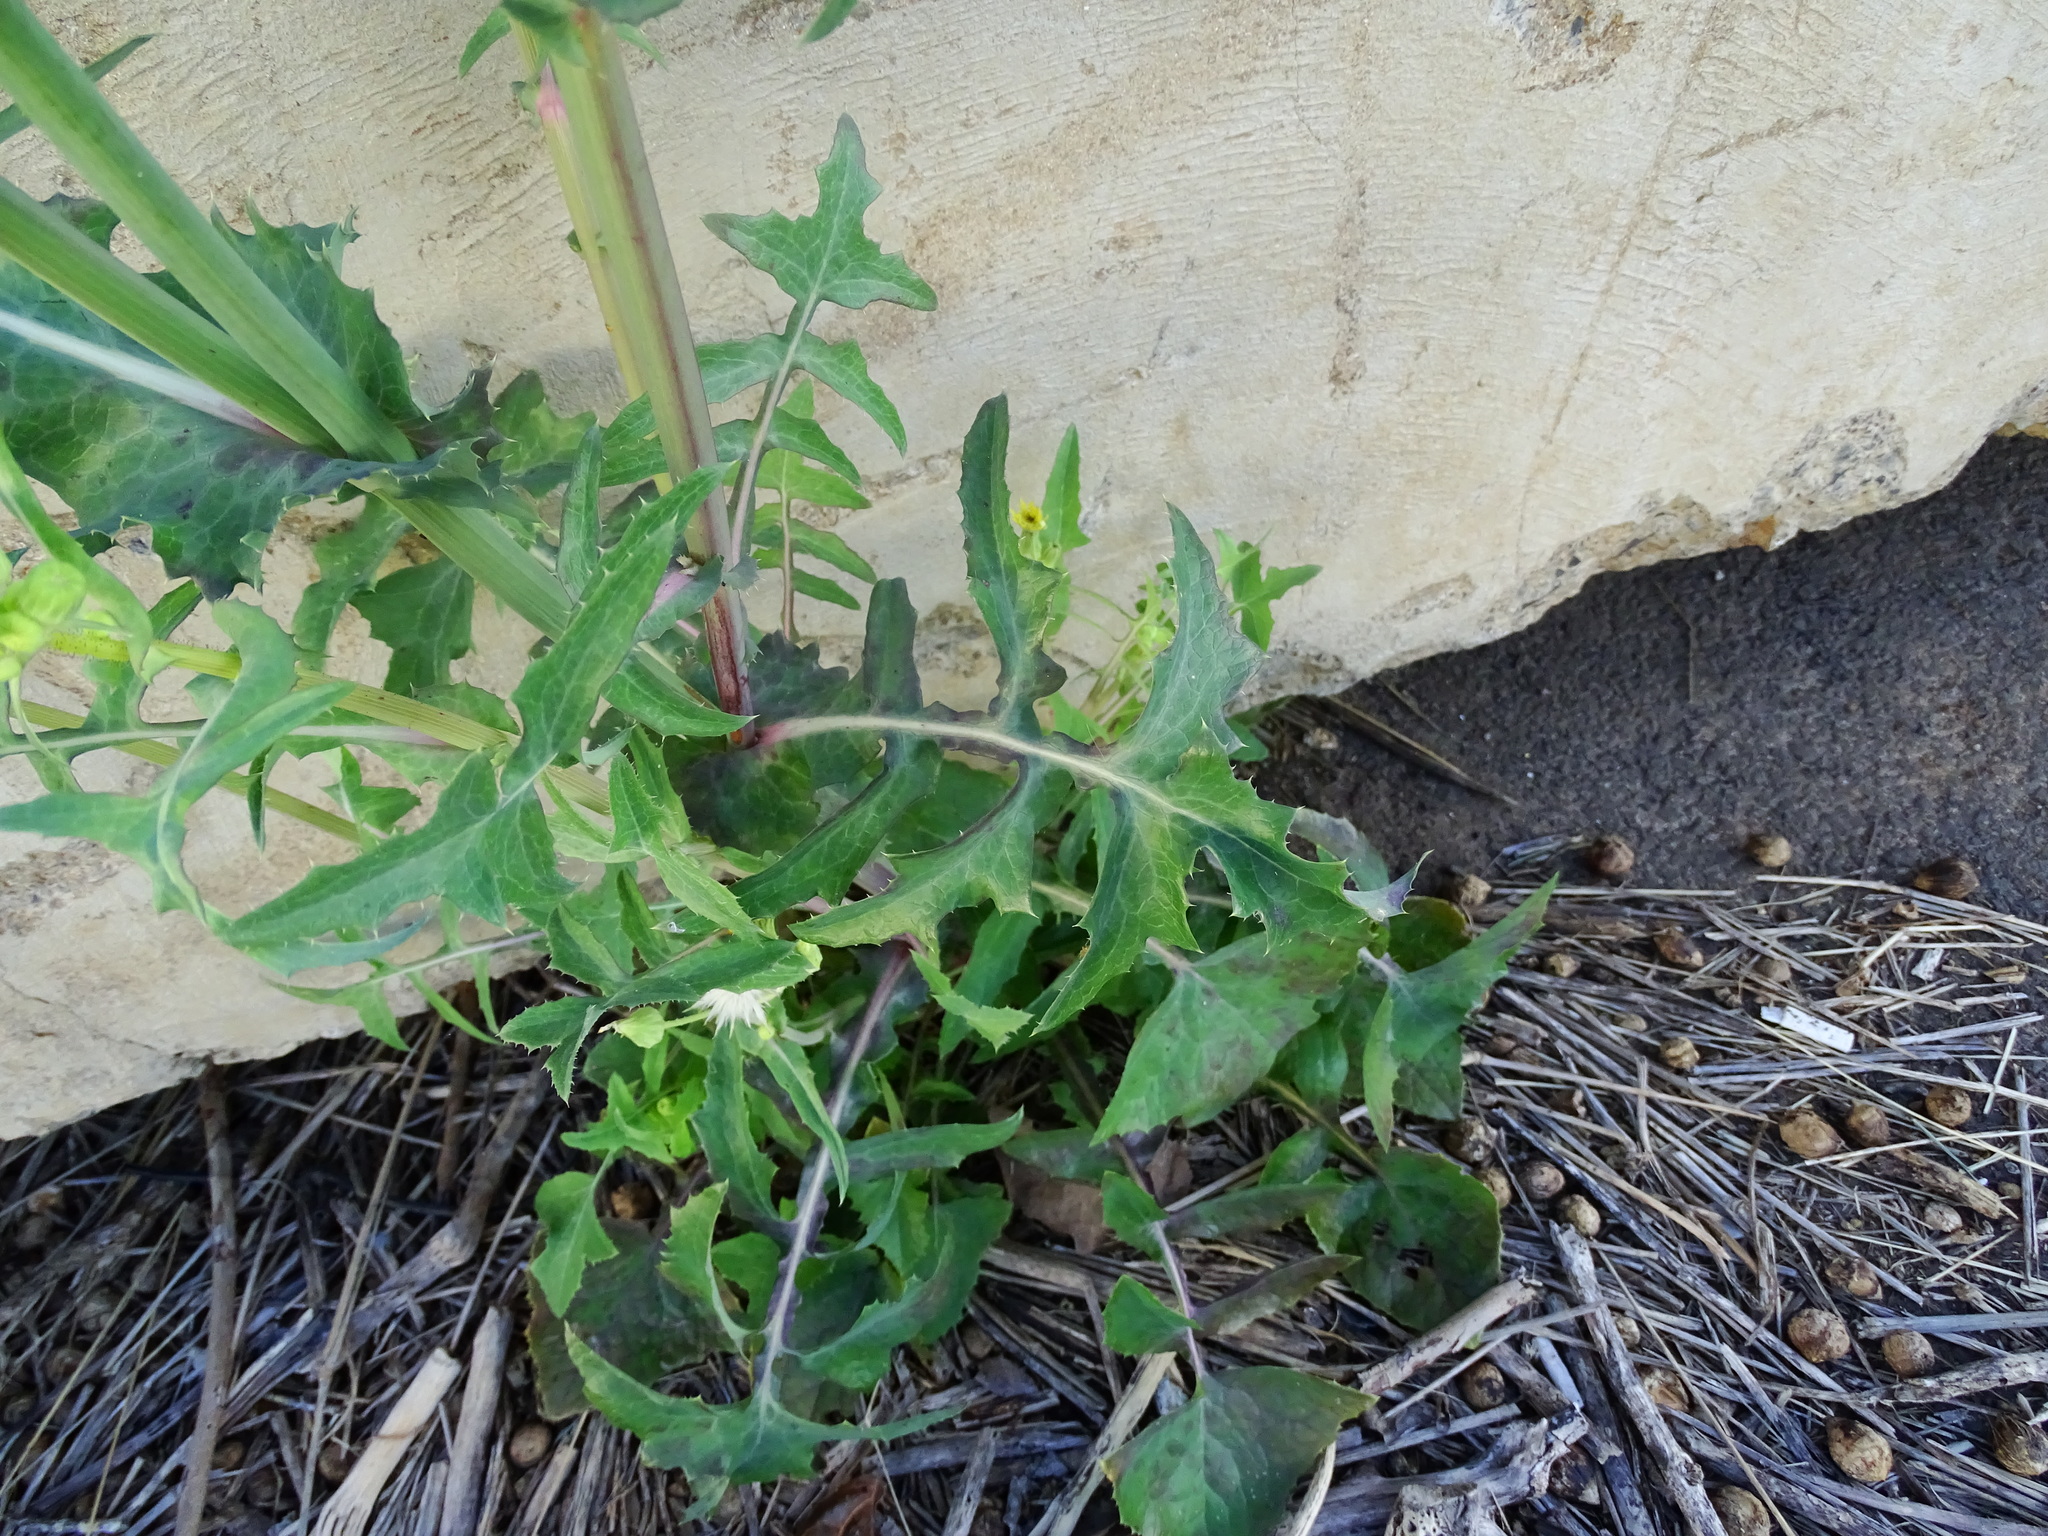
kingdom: Plantae
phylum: Tracheophyta
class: Magnoliopsida
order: Asterales
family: Asteraceae
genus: Sonchus
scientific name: Sonchus oleraceus
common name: Common sowthistle
